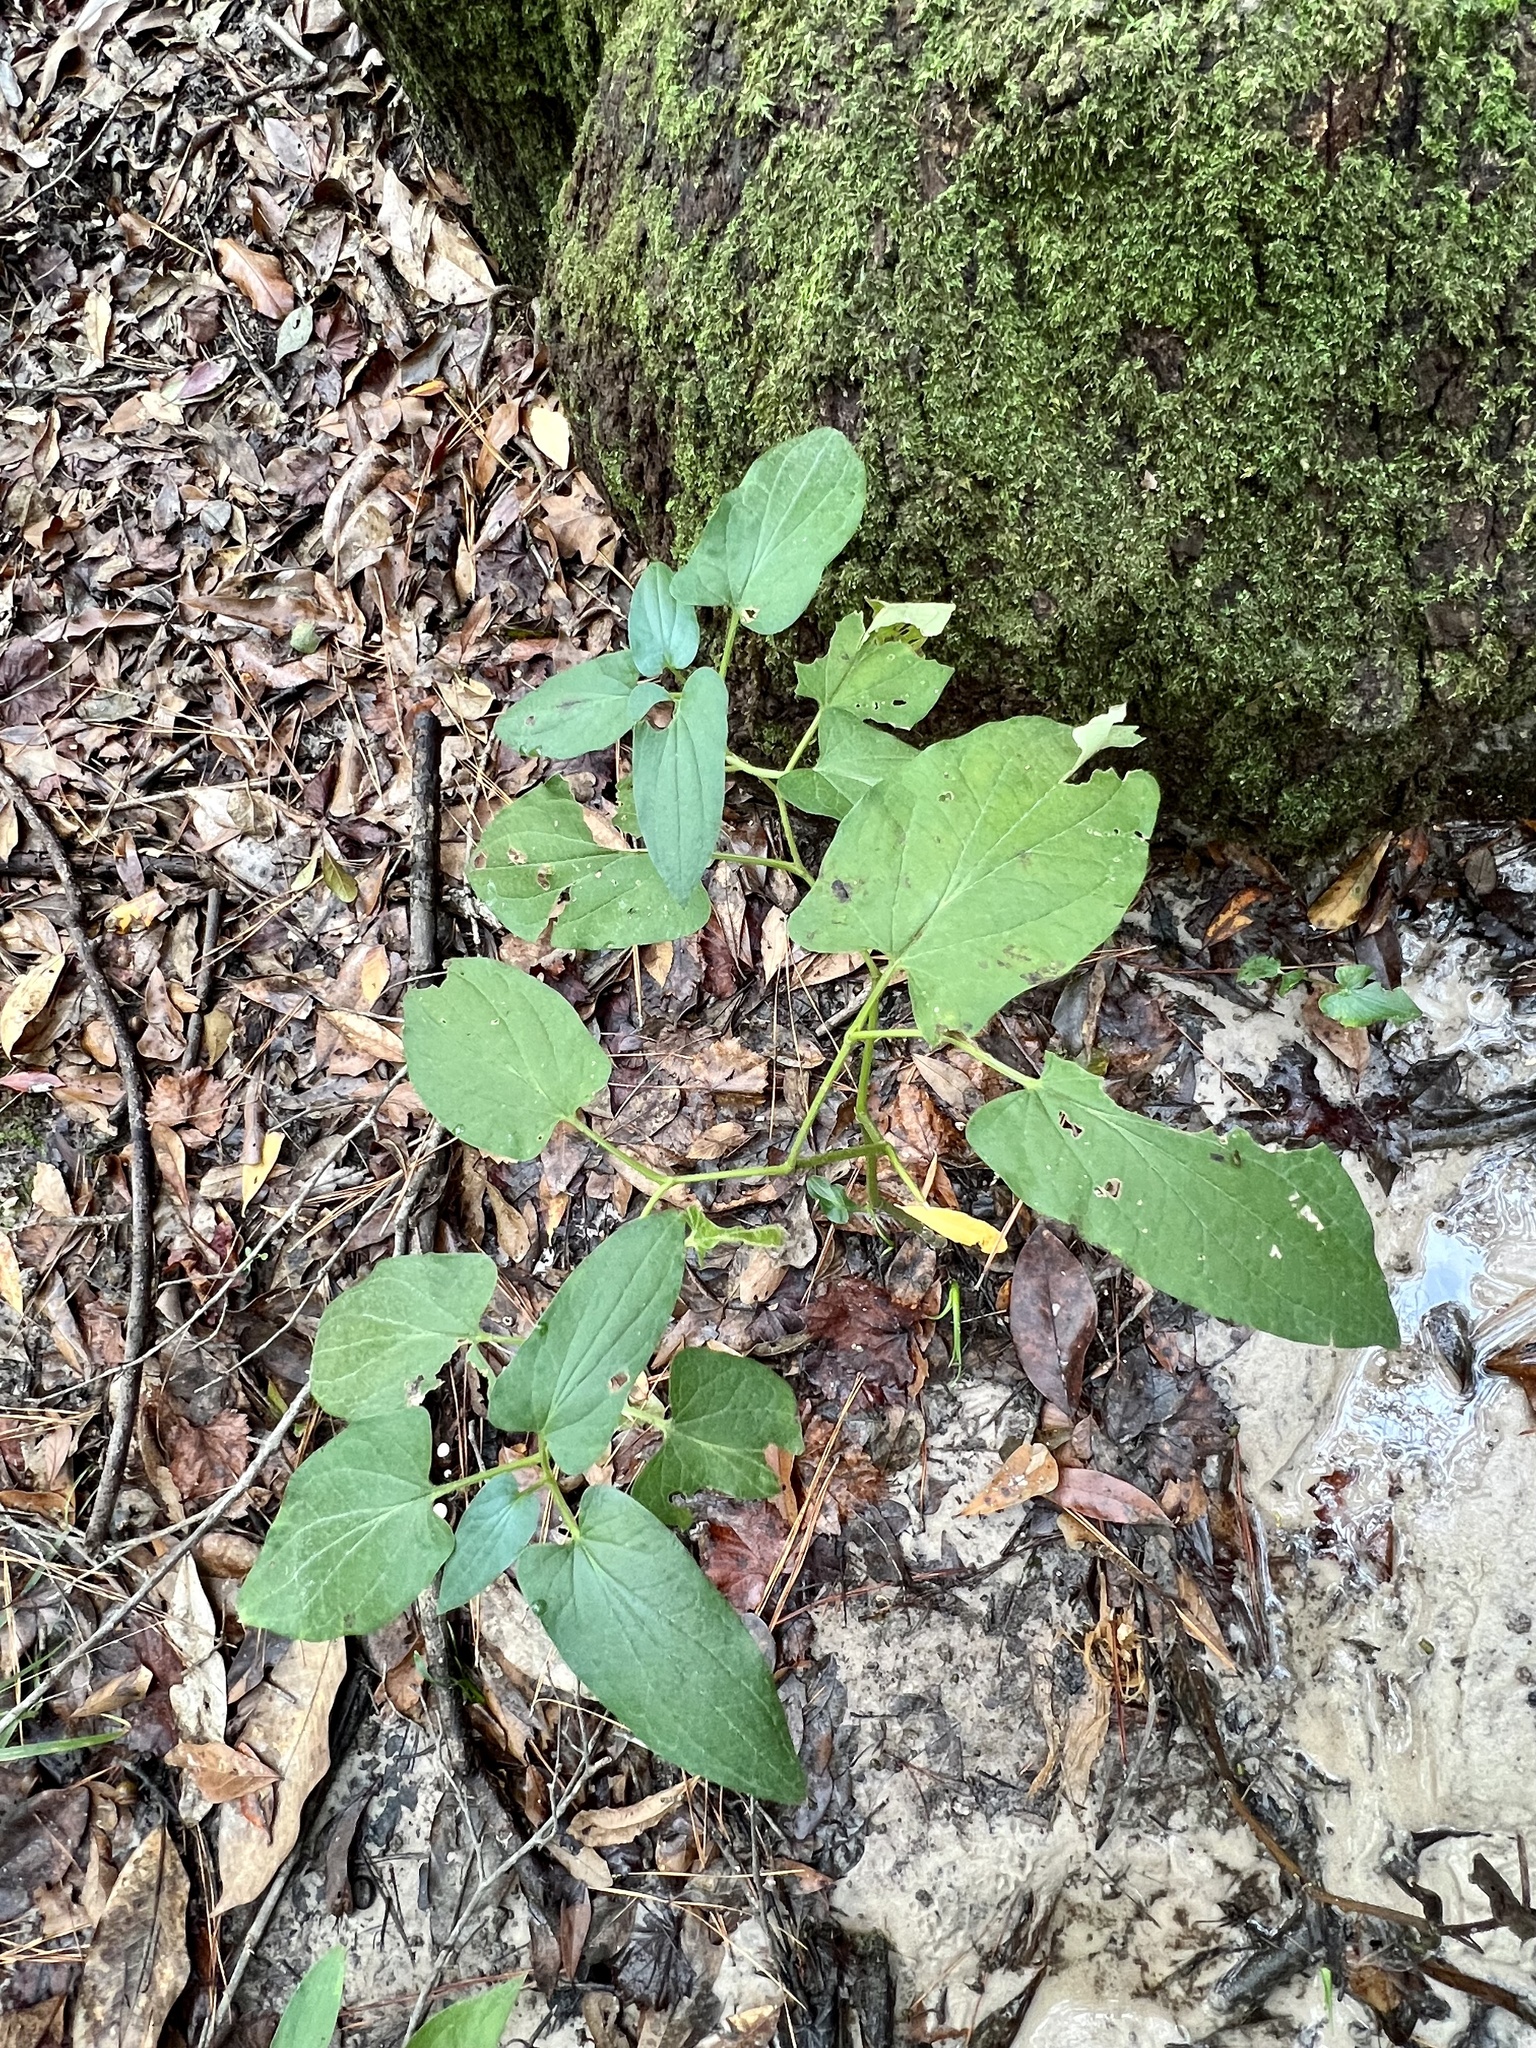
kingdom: Plantae
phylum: Tracheophyta
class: Magnoliopsida
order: Piperales
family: Saururaceae
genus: Saururus
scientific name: Saururus cernuus
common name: Lizard's-tail
